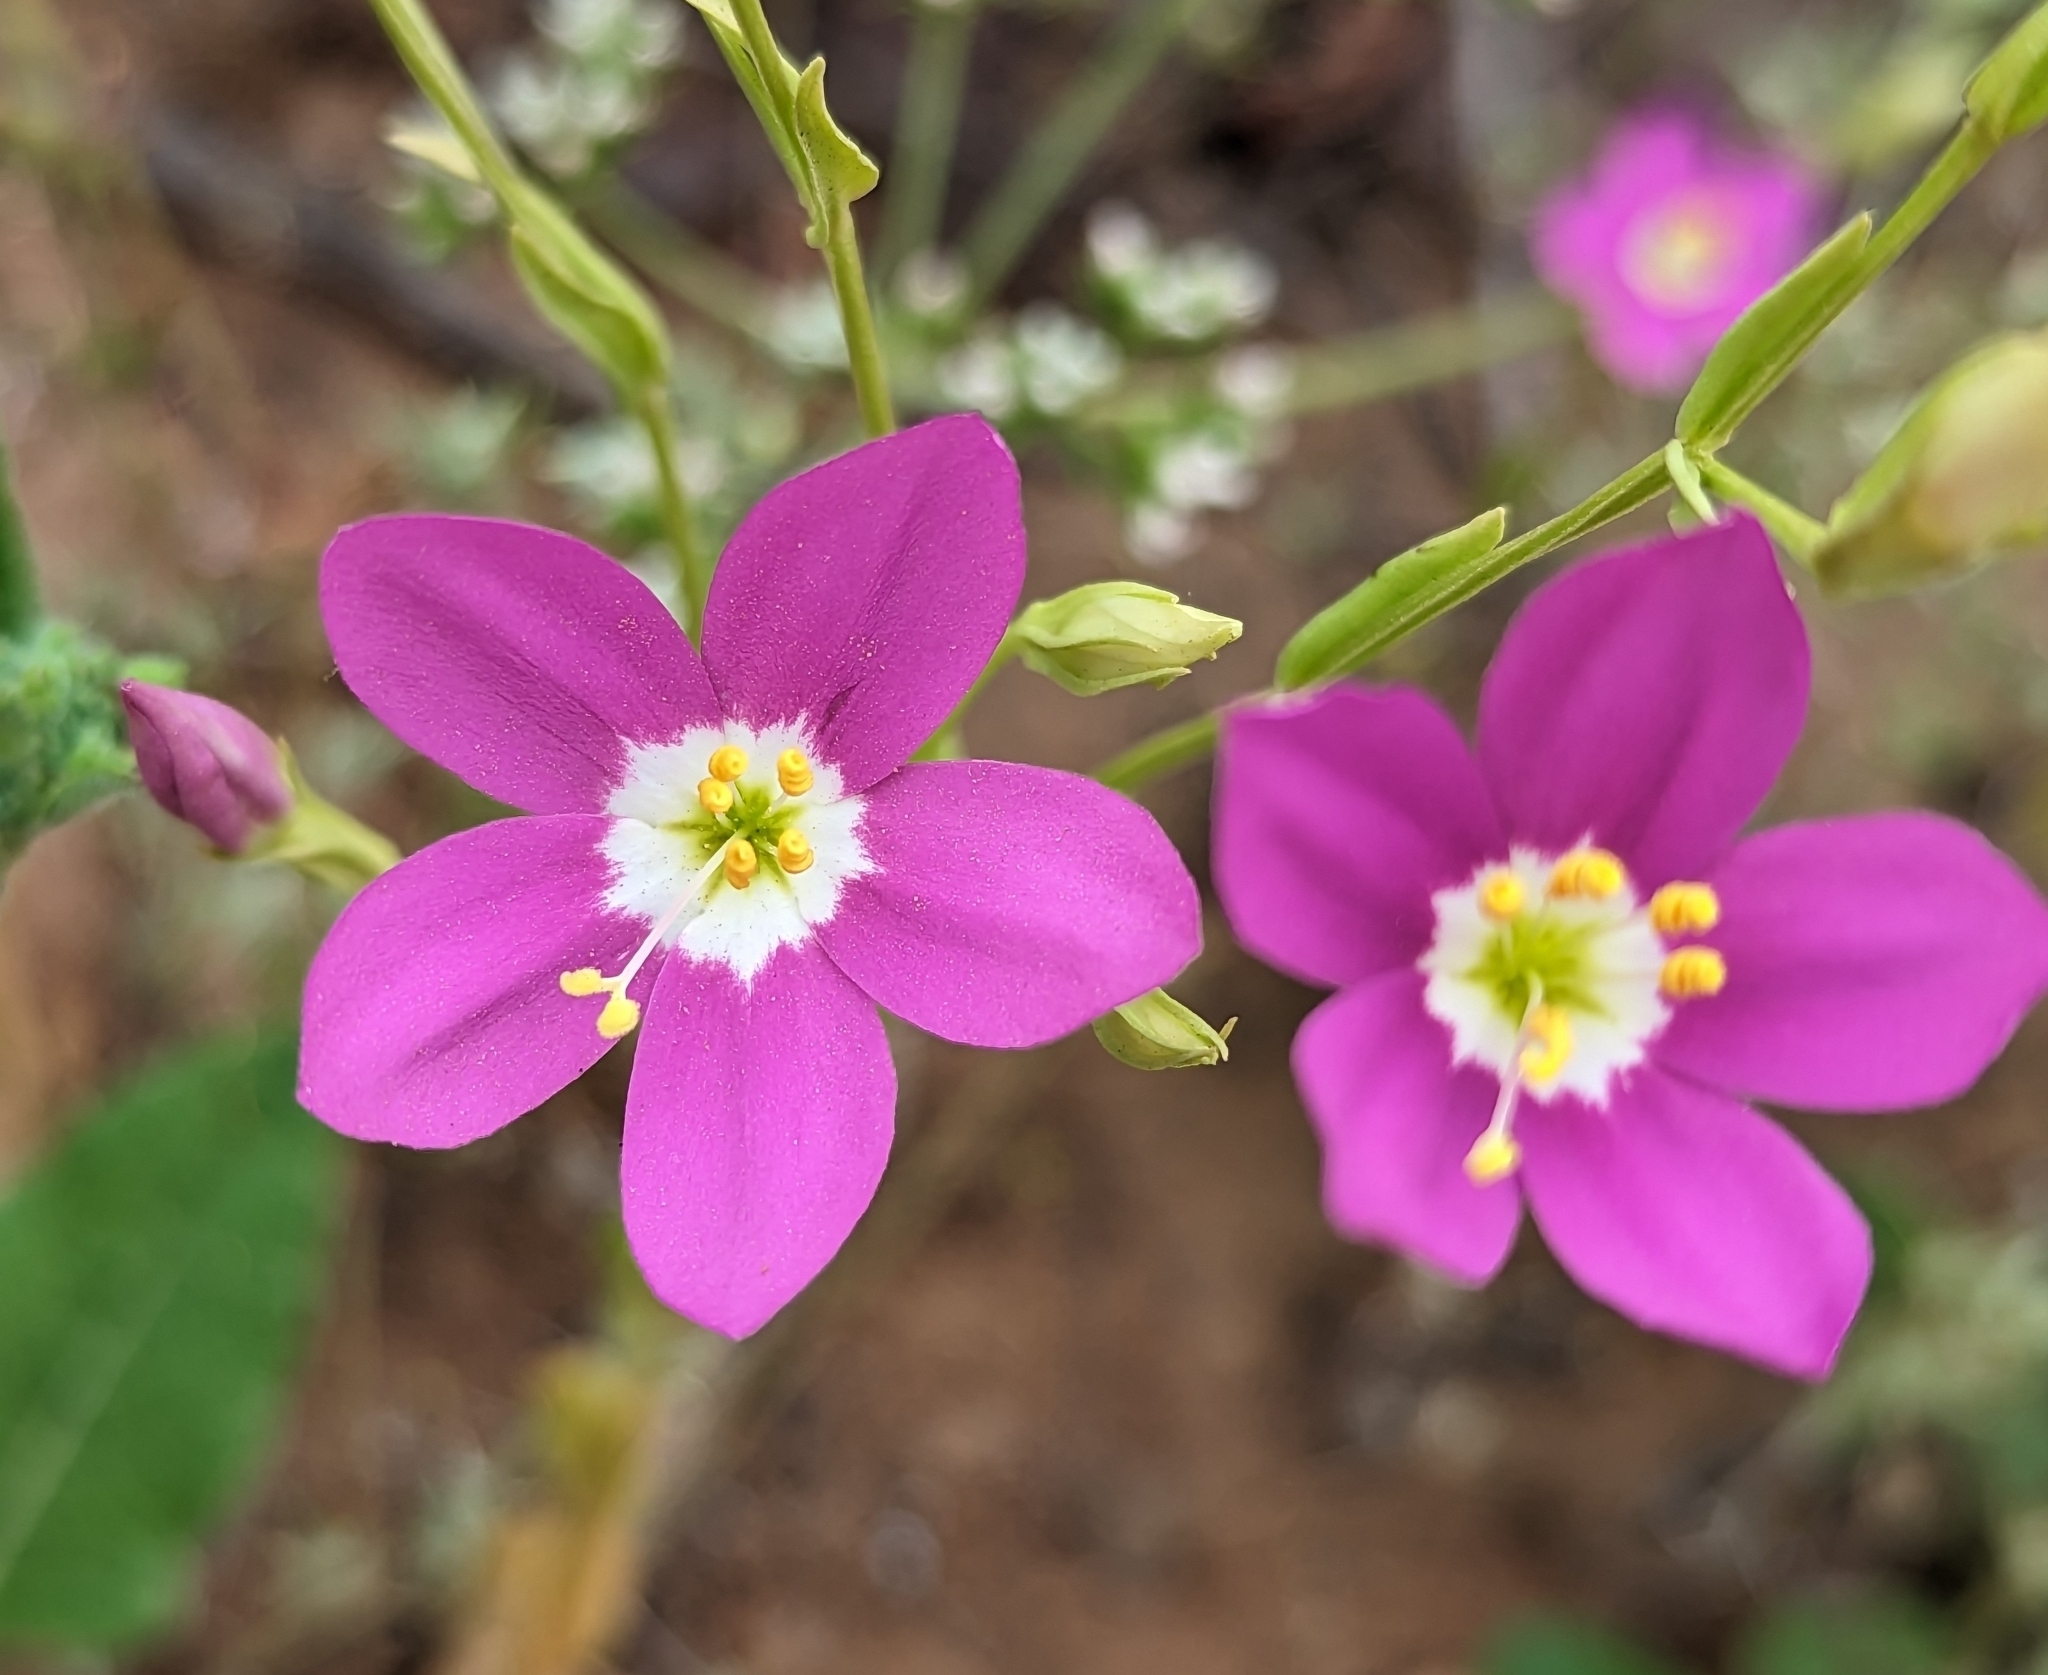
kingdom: Plantae
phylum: Tracheophyta
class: Magnoliopsida
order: Gentianales
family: Gentianaceae
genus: Zeltnera
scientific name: Zeltnera venusta
